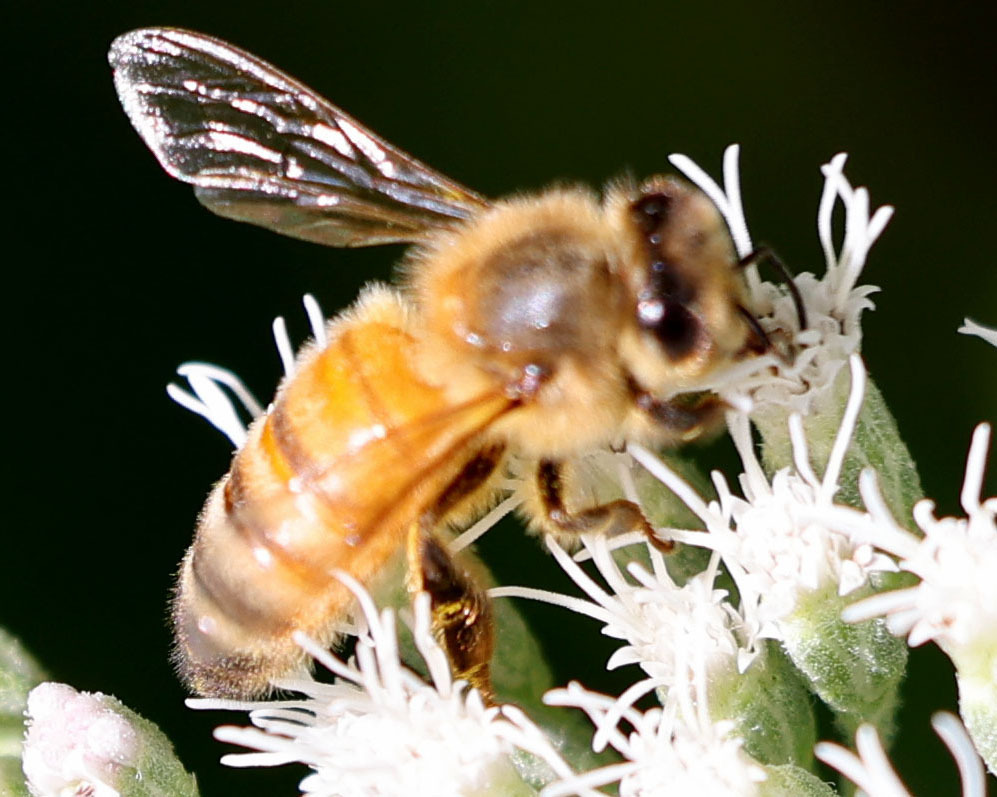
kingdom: Animalia
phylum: Arthropoda
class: Insecta
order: Hymenoptera
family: Apidae
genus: Apis
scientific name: Apis mellifera
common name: Honey bee
